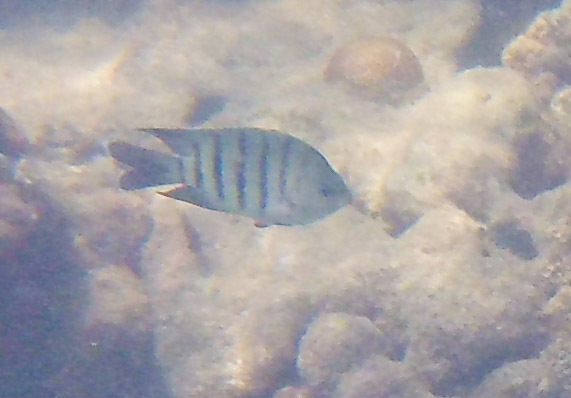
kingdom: Animalia
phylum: Chordata
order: Perciformes
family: Pomacentridae
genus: Abudefduf
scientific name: Abudefduf bengalensis
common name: Bengal sergeant
